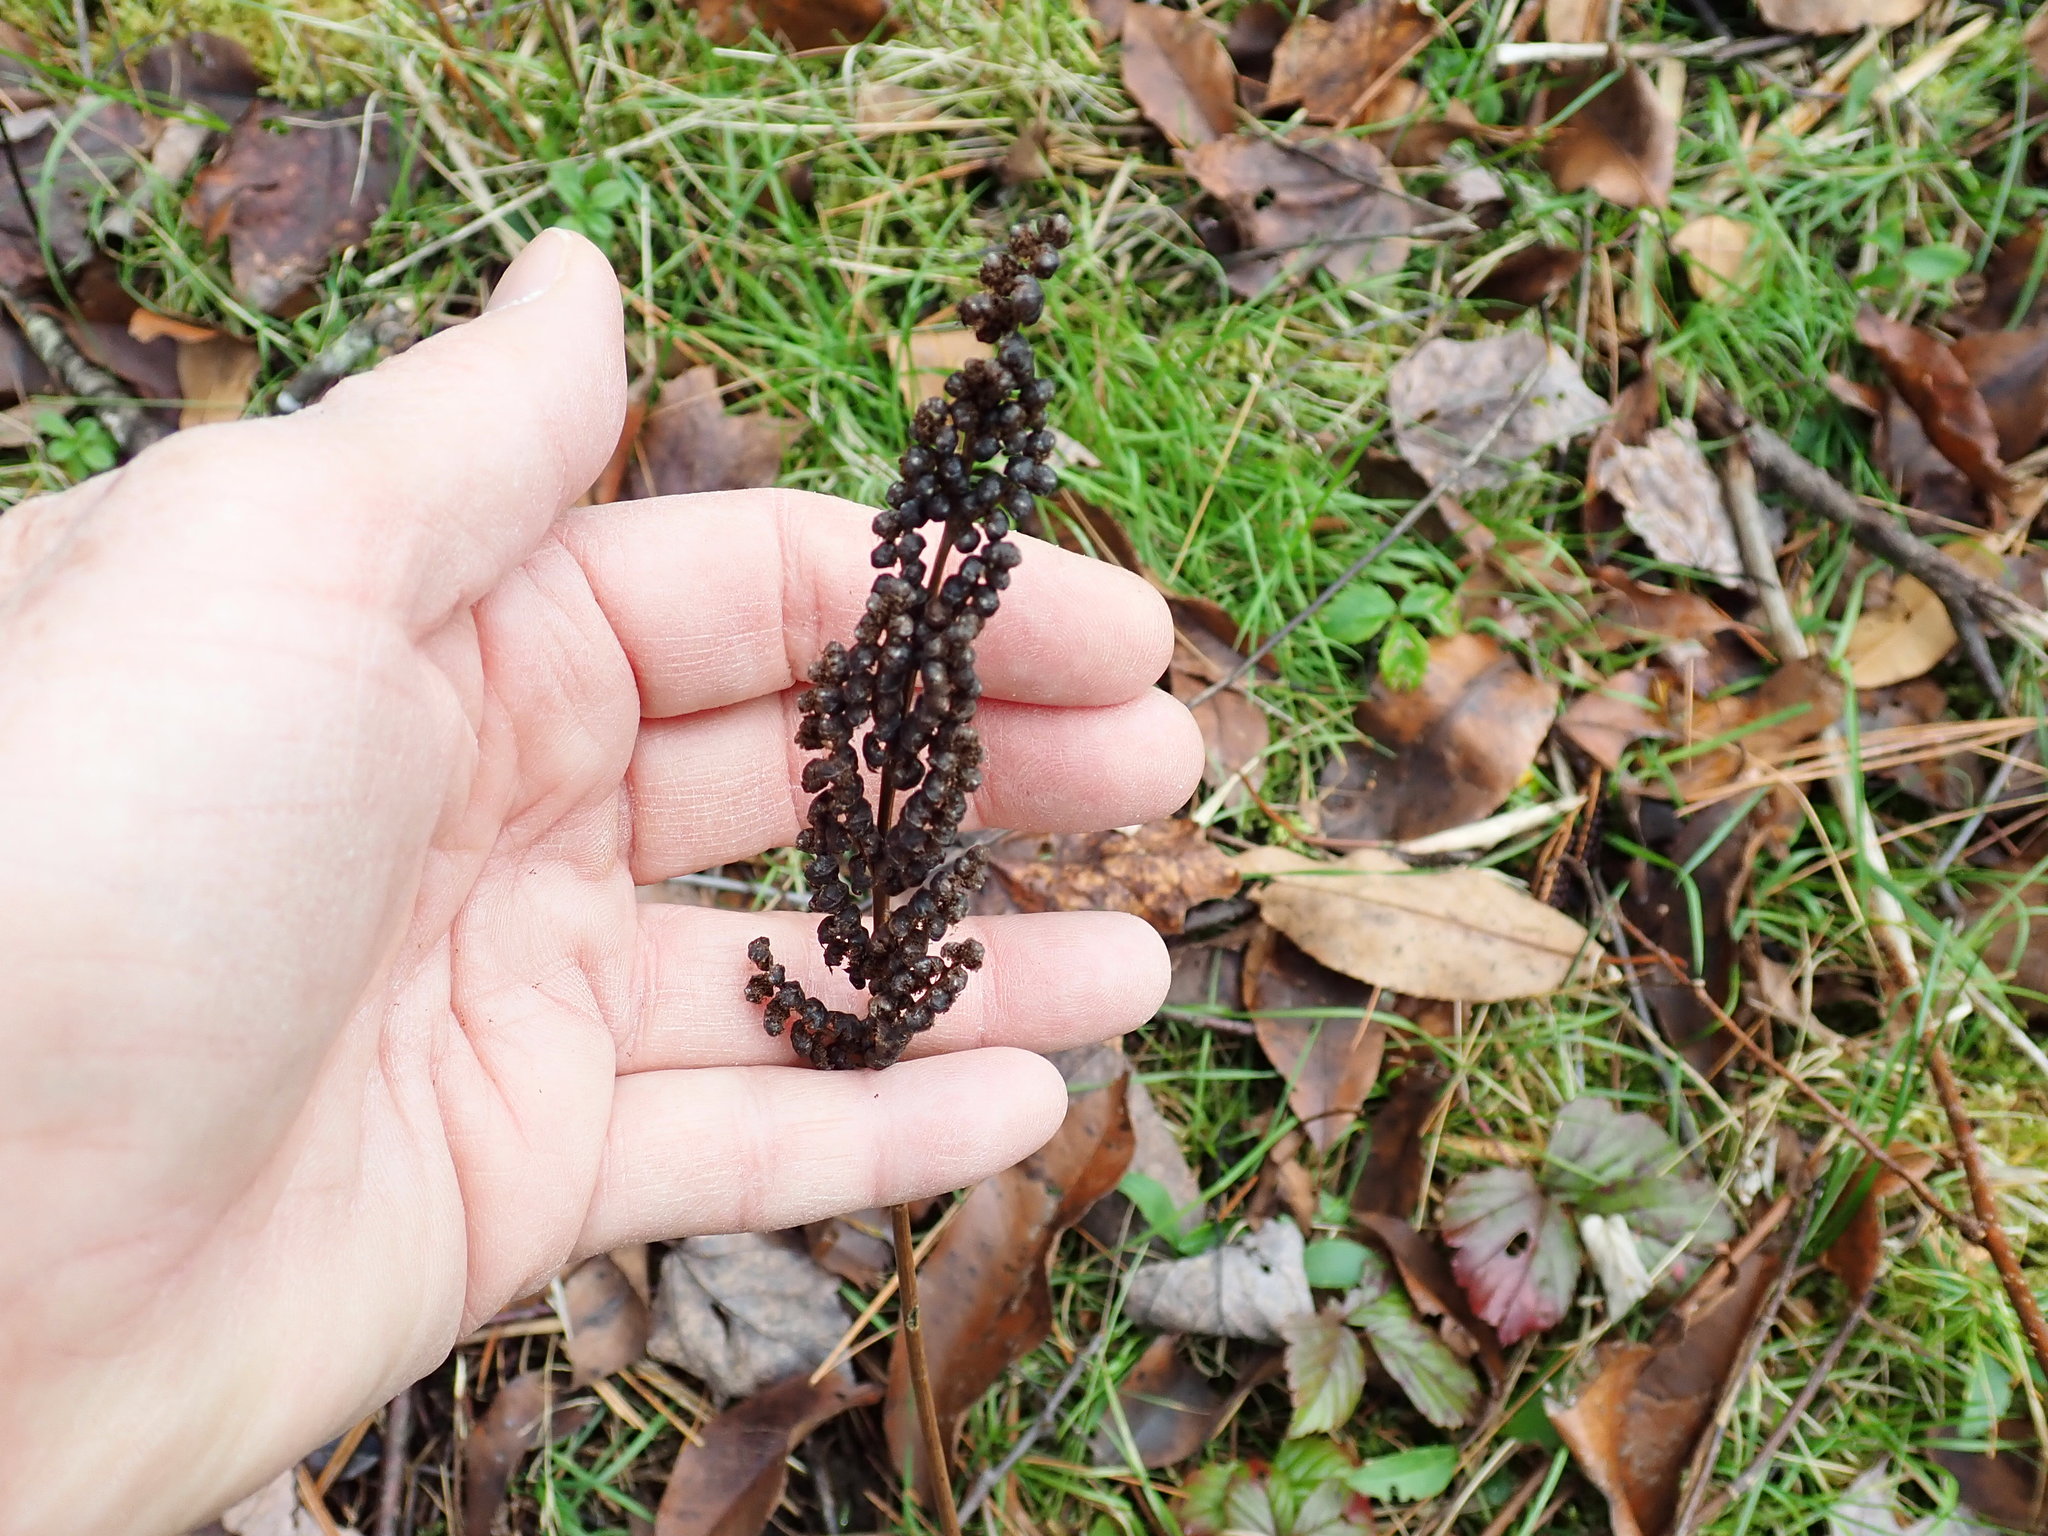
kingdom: Plantae
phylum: Tracheophyta
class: Polypodiopsida
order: Polypodiales
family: Onocleaceae
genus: Onoclea
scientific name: Onoclea sensibilis
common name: Sensitive fern
